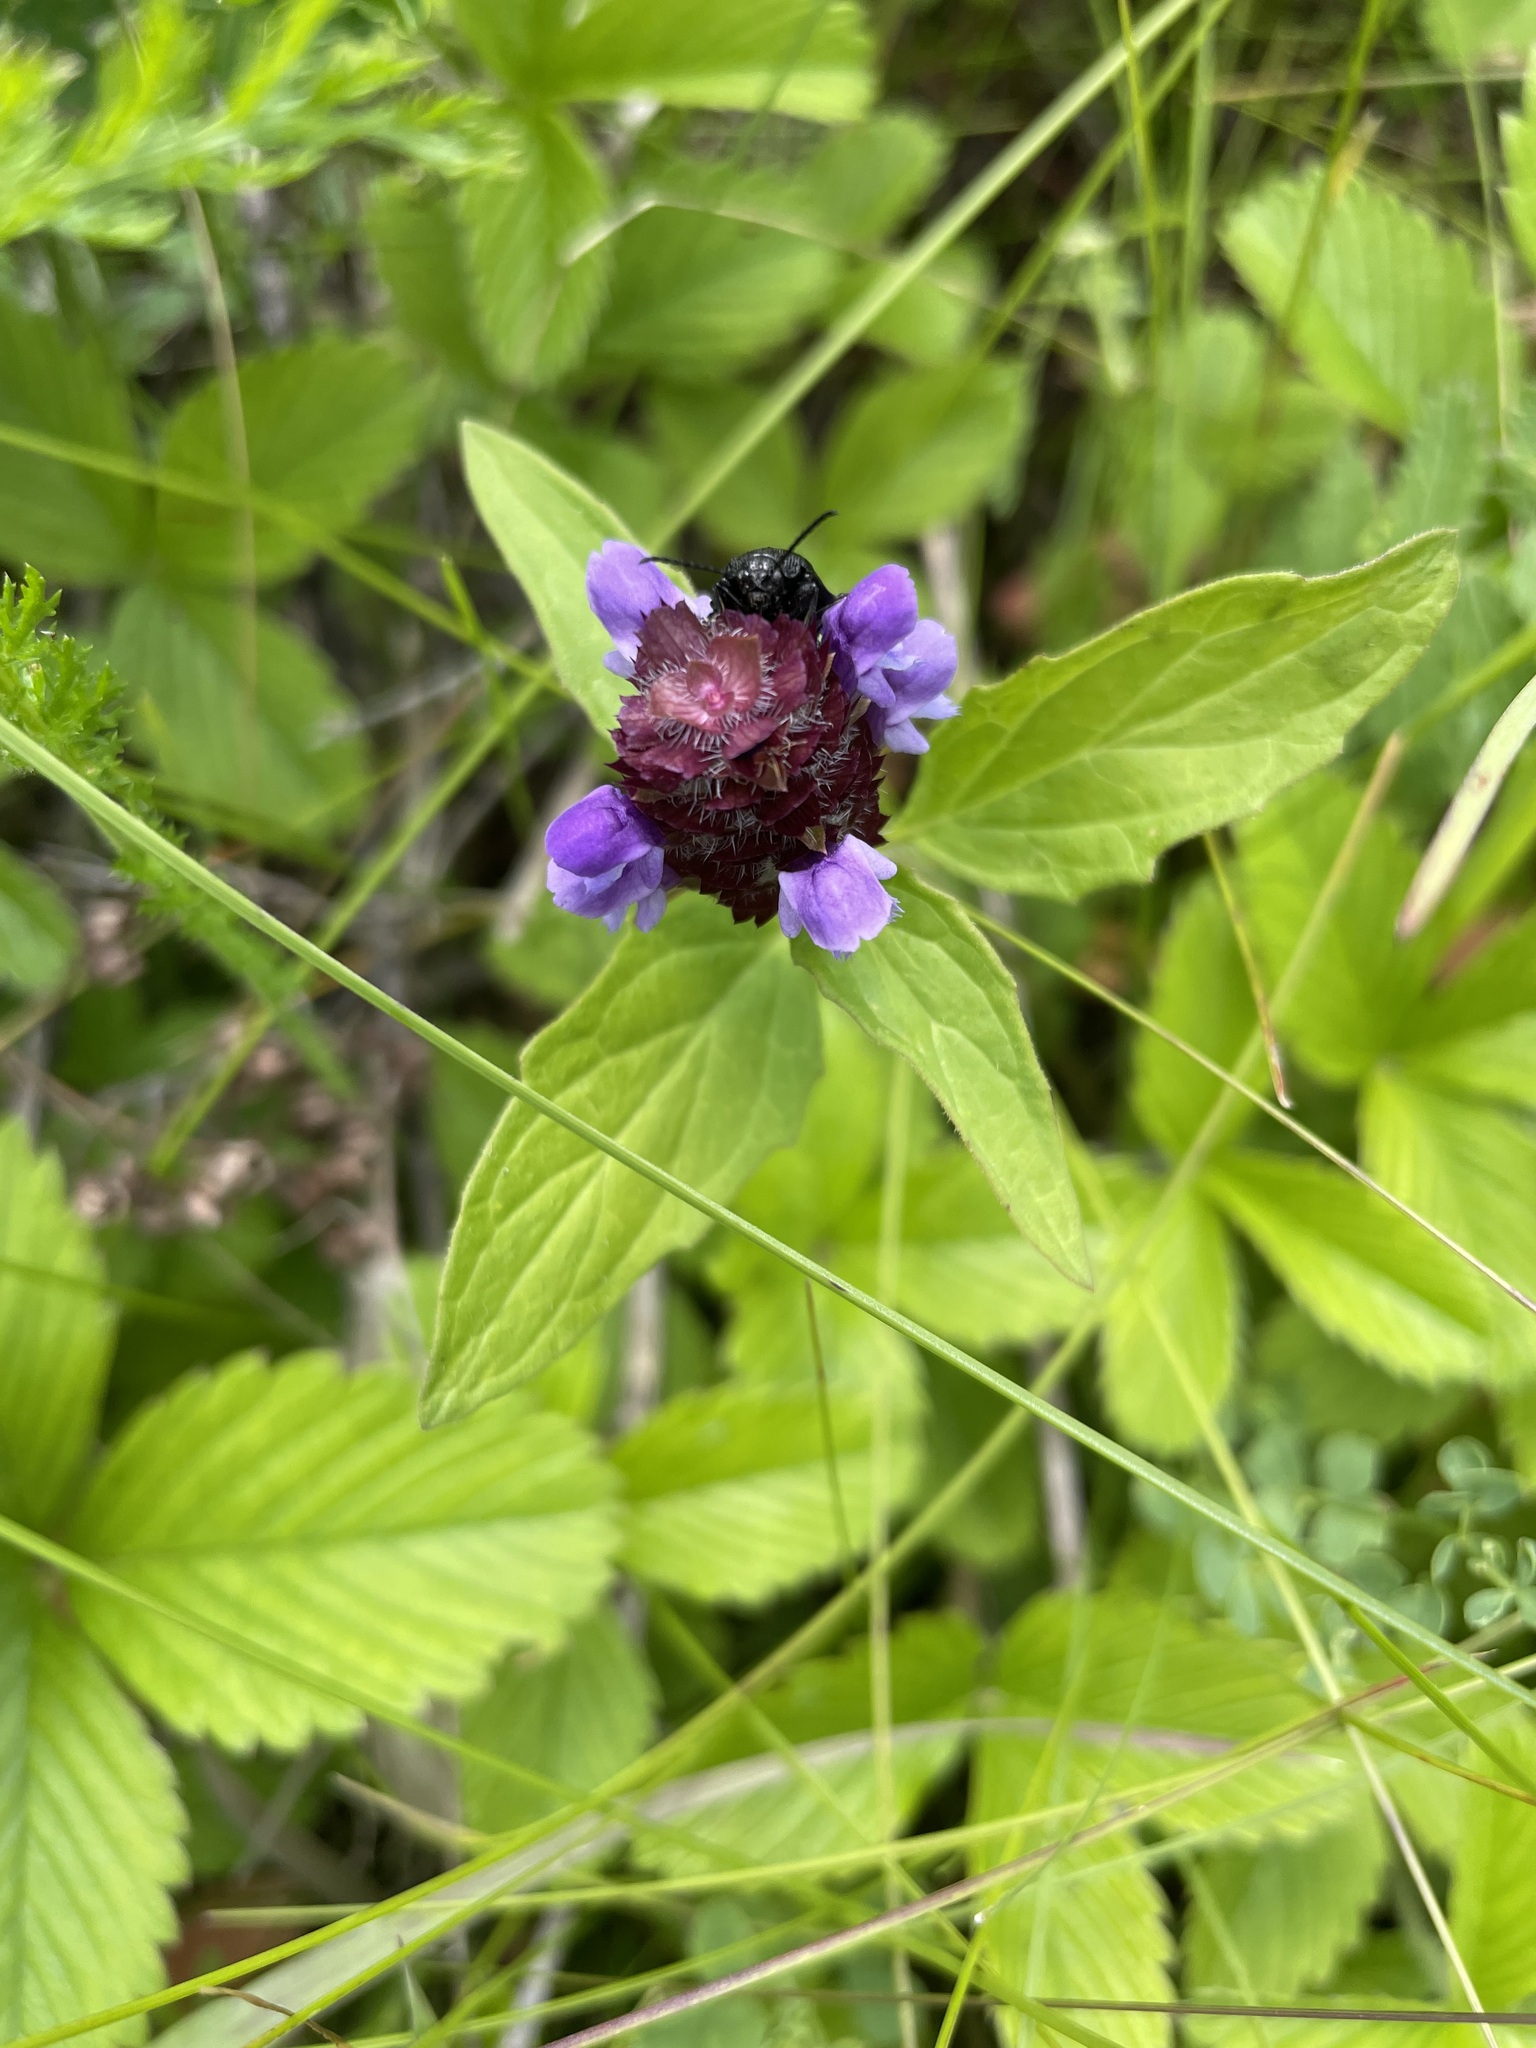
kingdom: Plantae
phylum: Tracheophyta
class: Magnoliopsida
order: Lamiales
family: Lamiaceae
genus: Prunella
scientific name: Prunella vulgaris
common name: Heal-all
